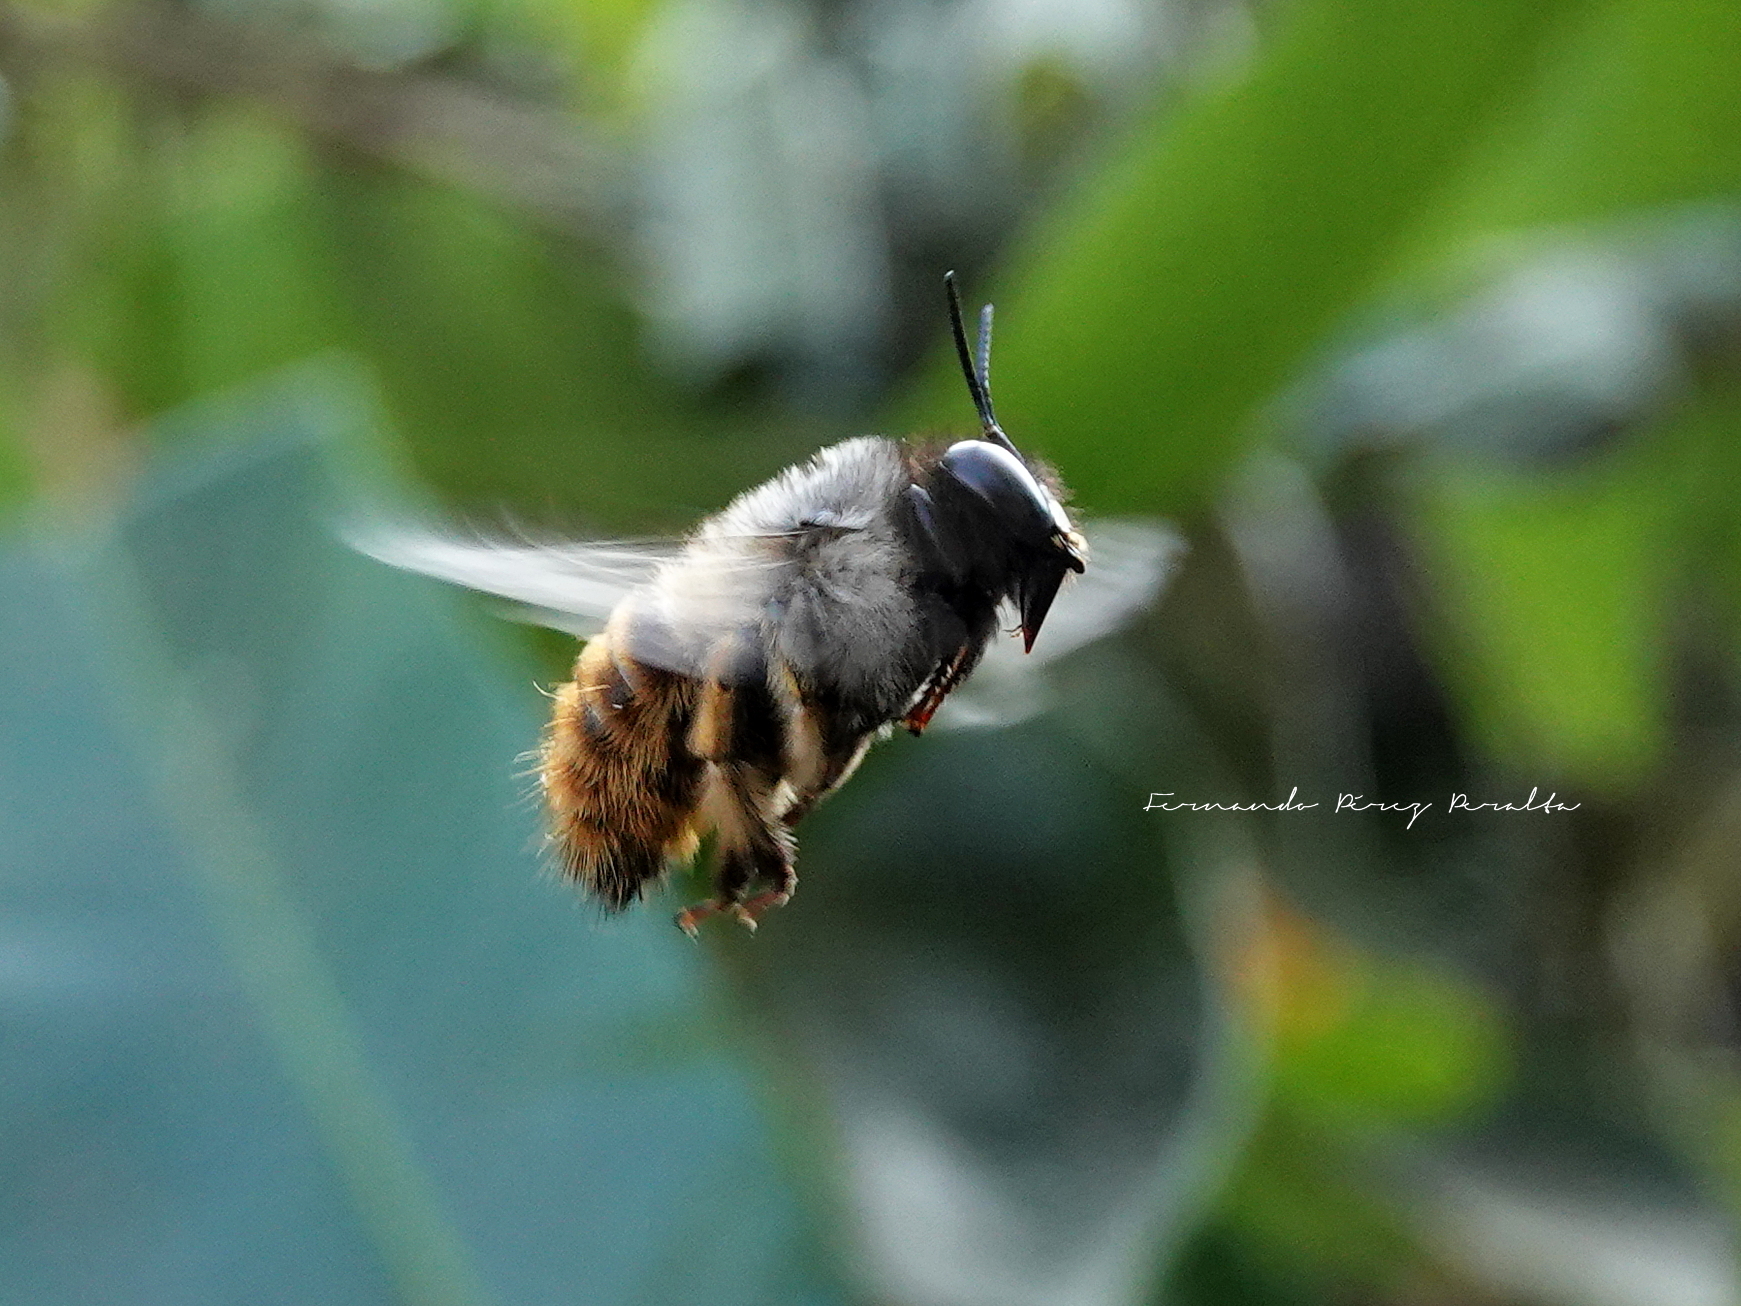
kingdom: Animalia
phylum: Arthropoda
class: Insecta
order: Hymenoptera
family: Apidae
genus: Xylocopa
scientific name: Xylocopa tabaniformis
